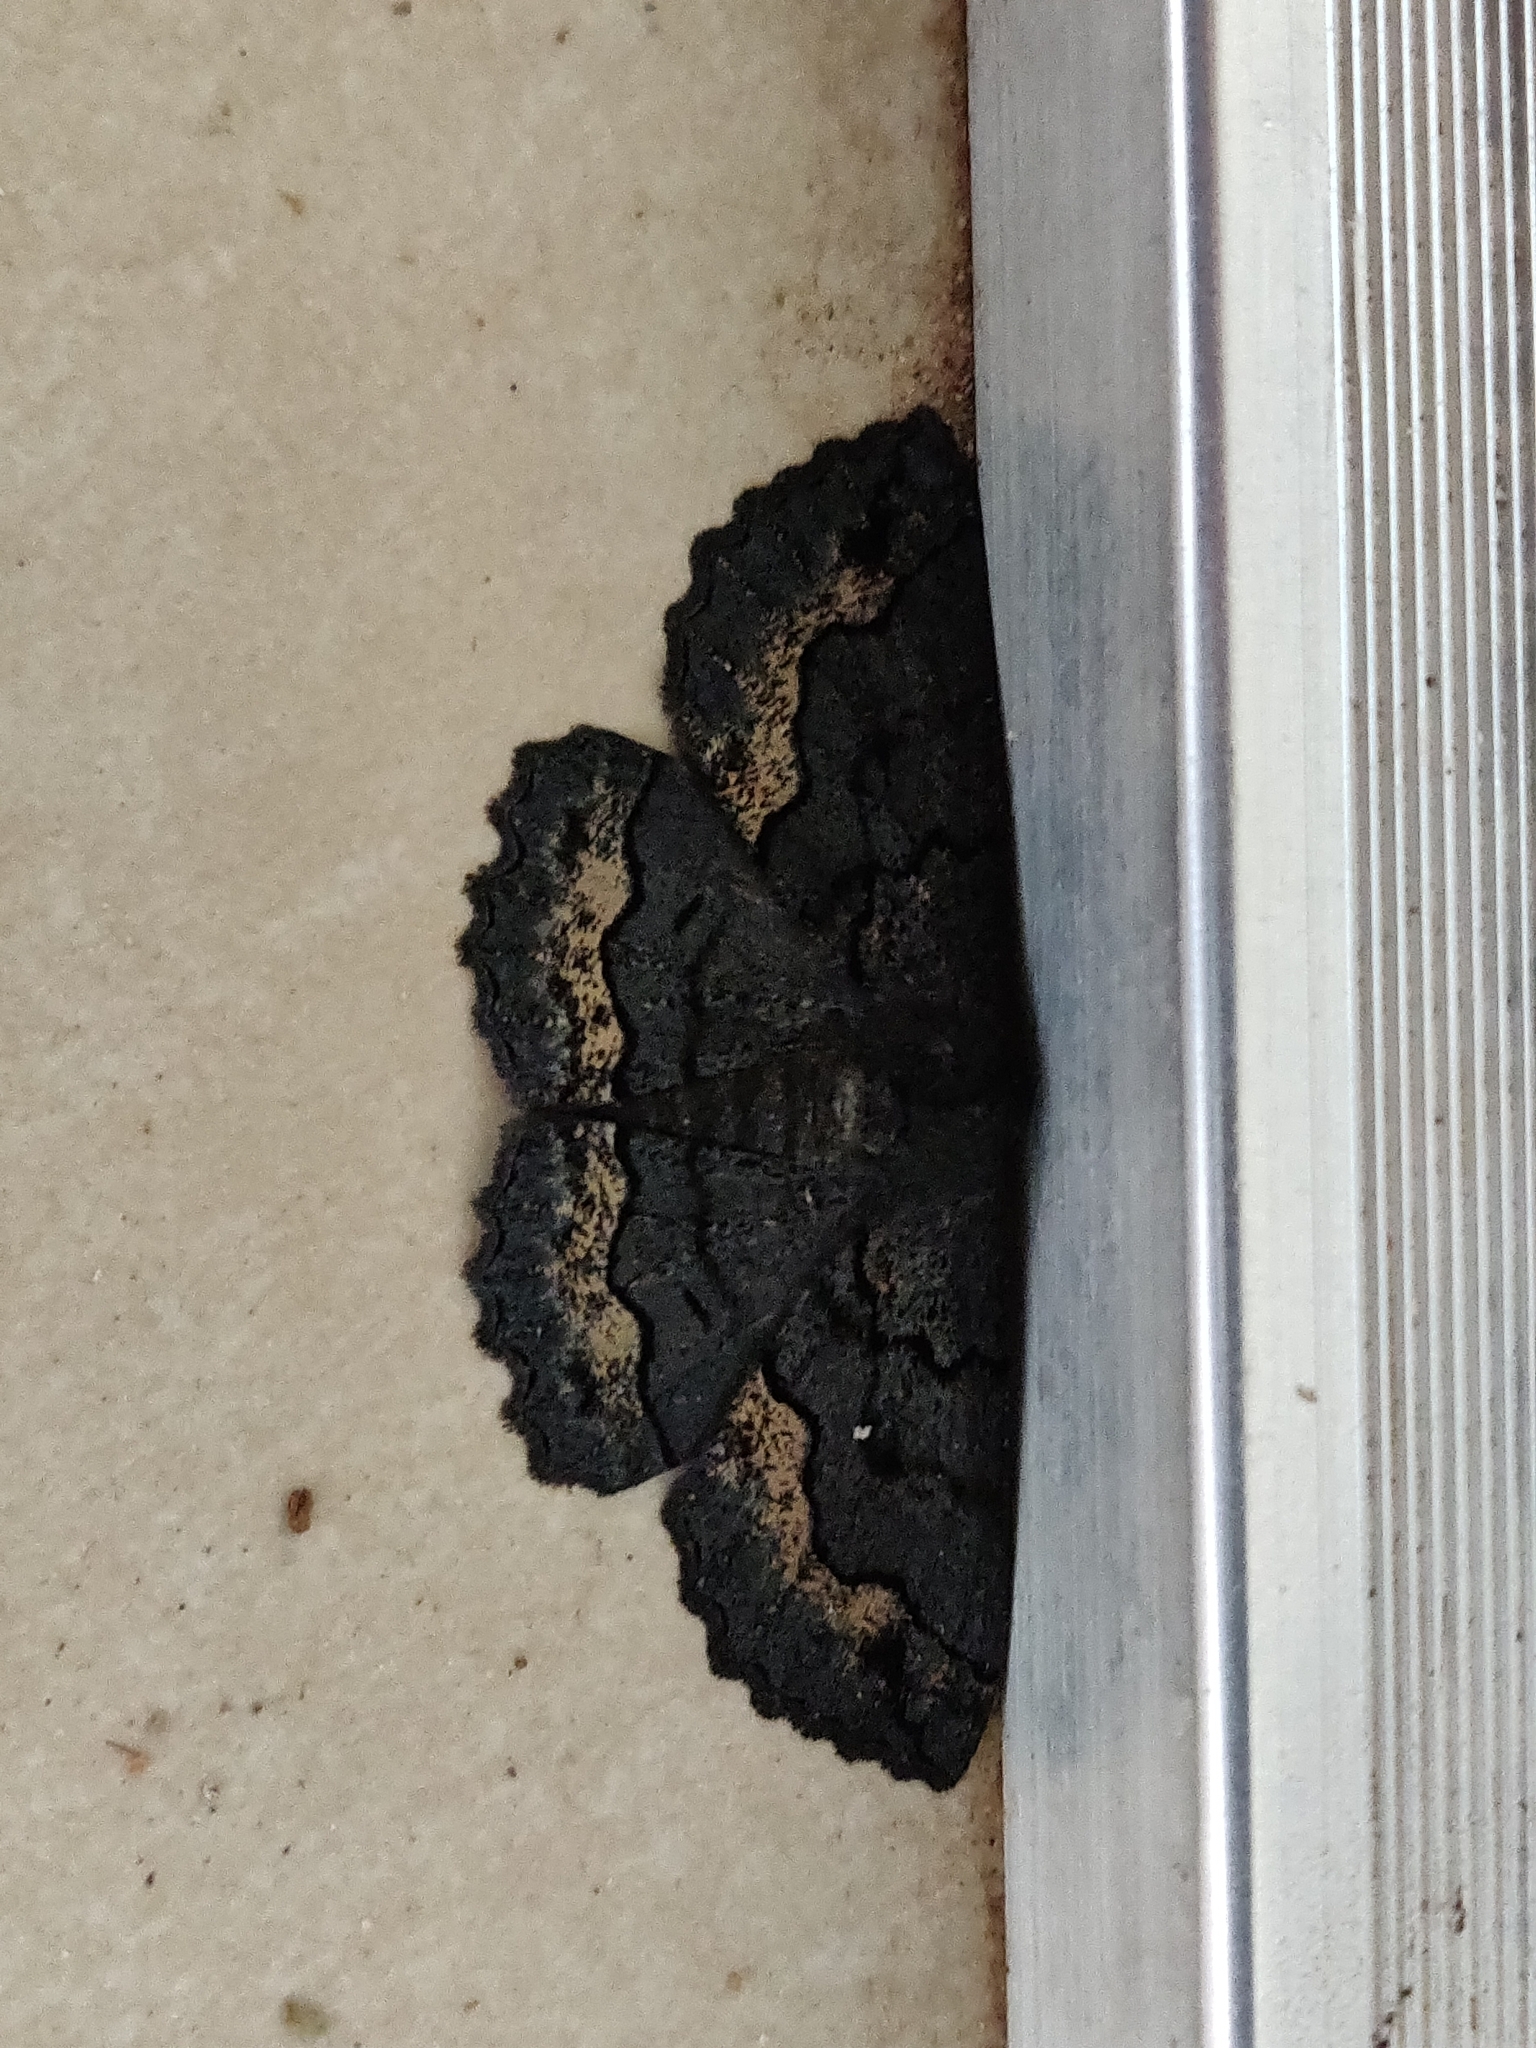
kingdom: Animalia
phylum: Arthropoda
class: Insecta
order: Lepidoptera
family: Geometridae
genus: Melanodes
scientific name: Melanodes anthracitaria
